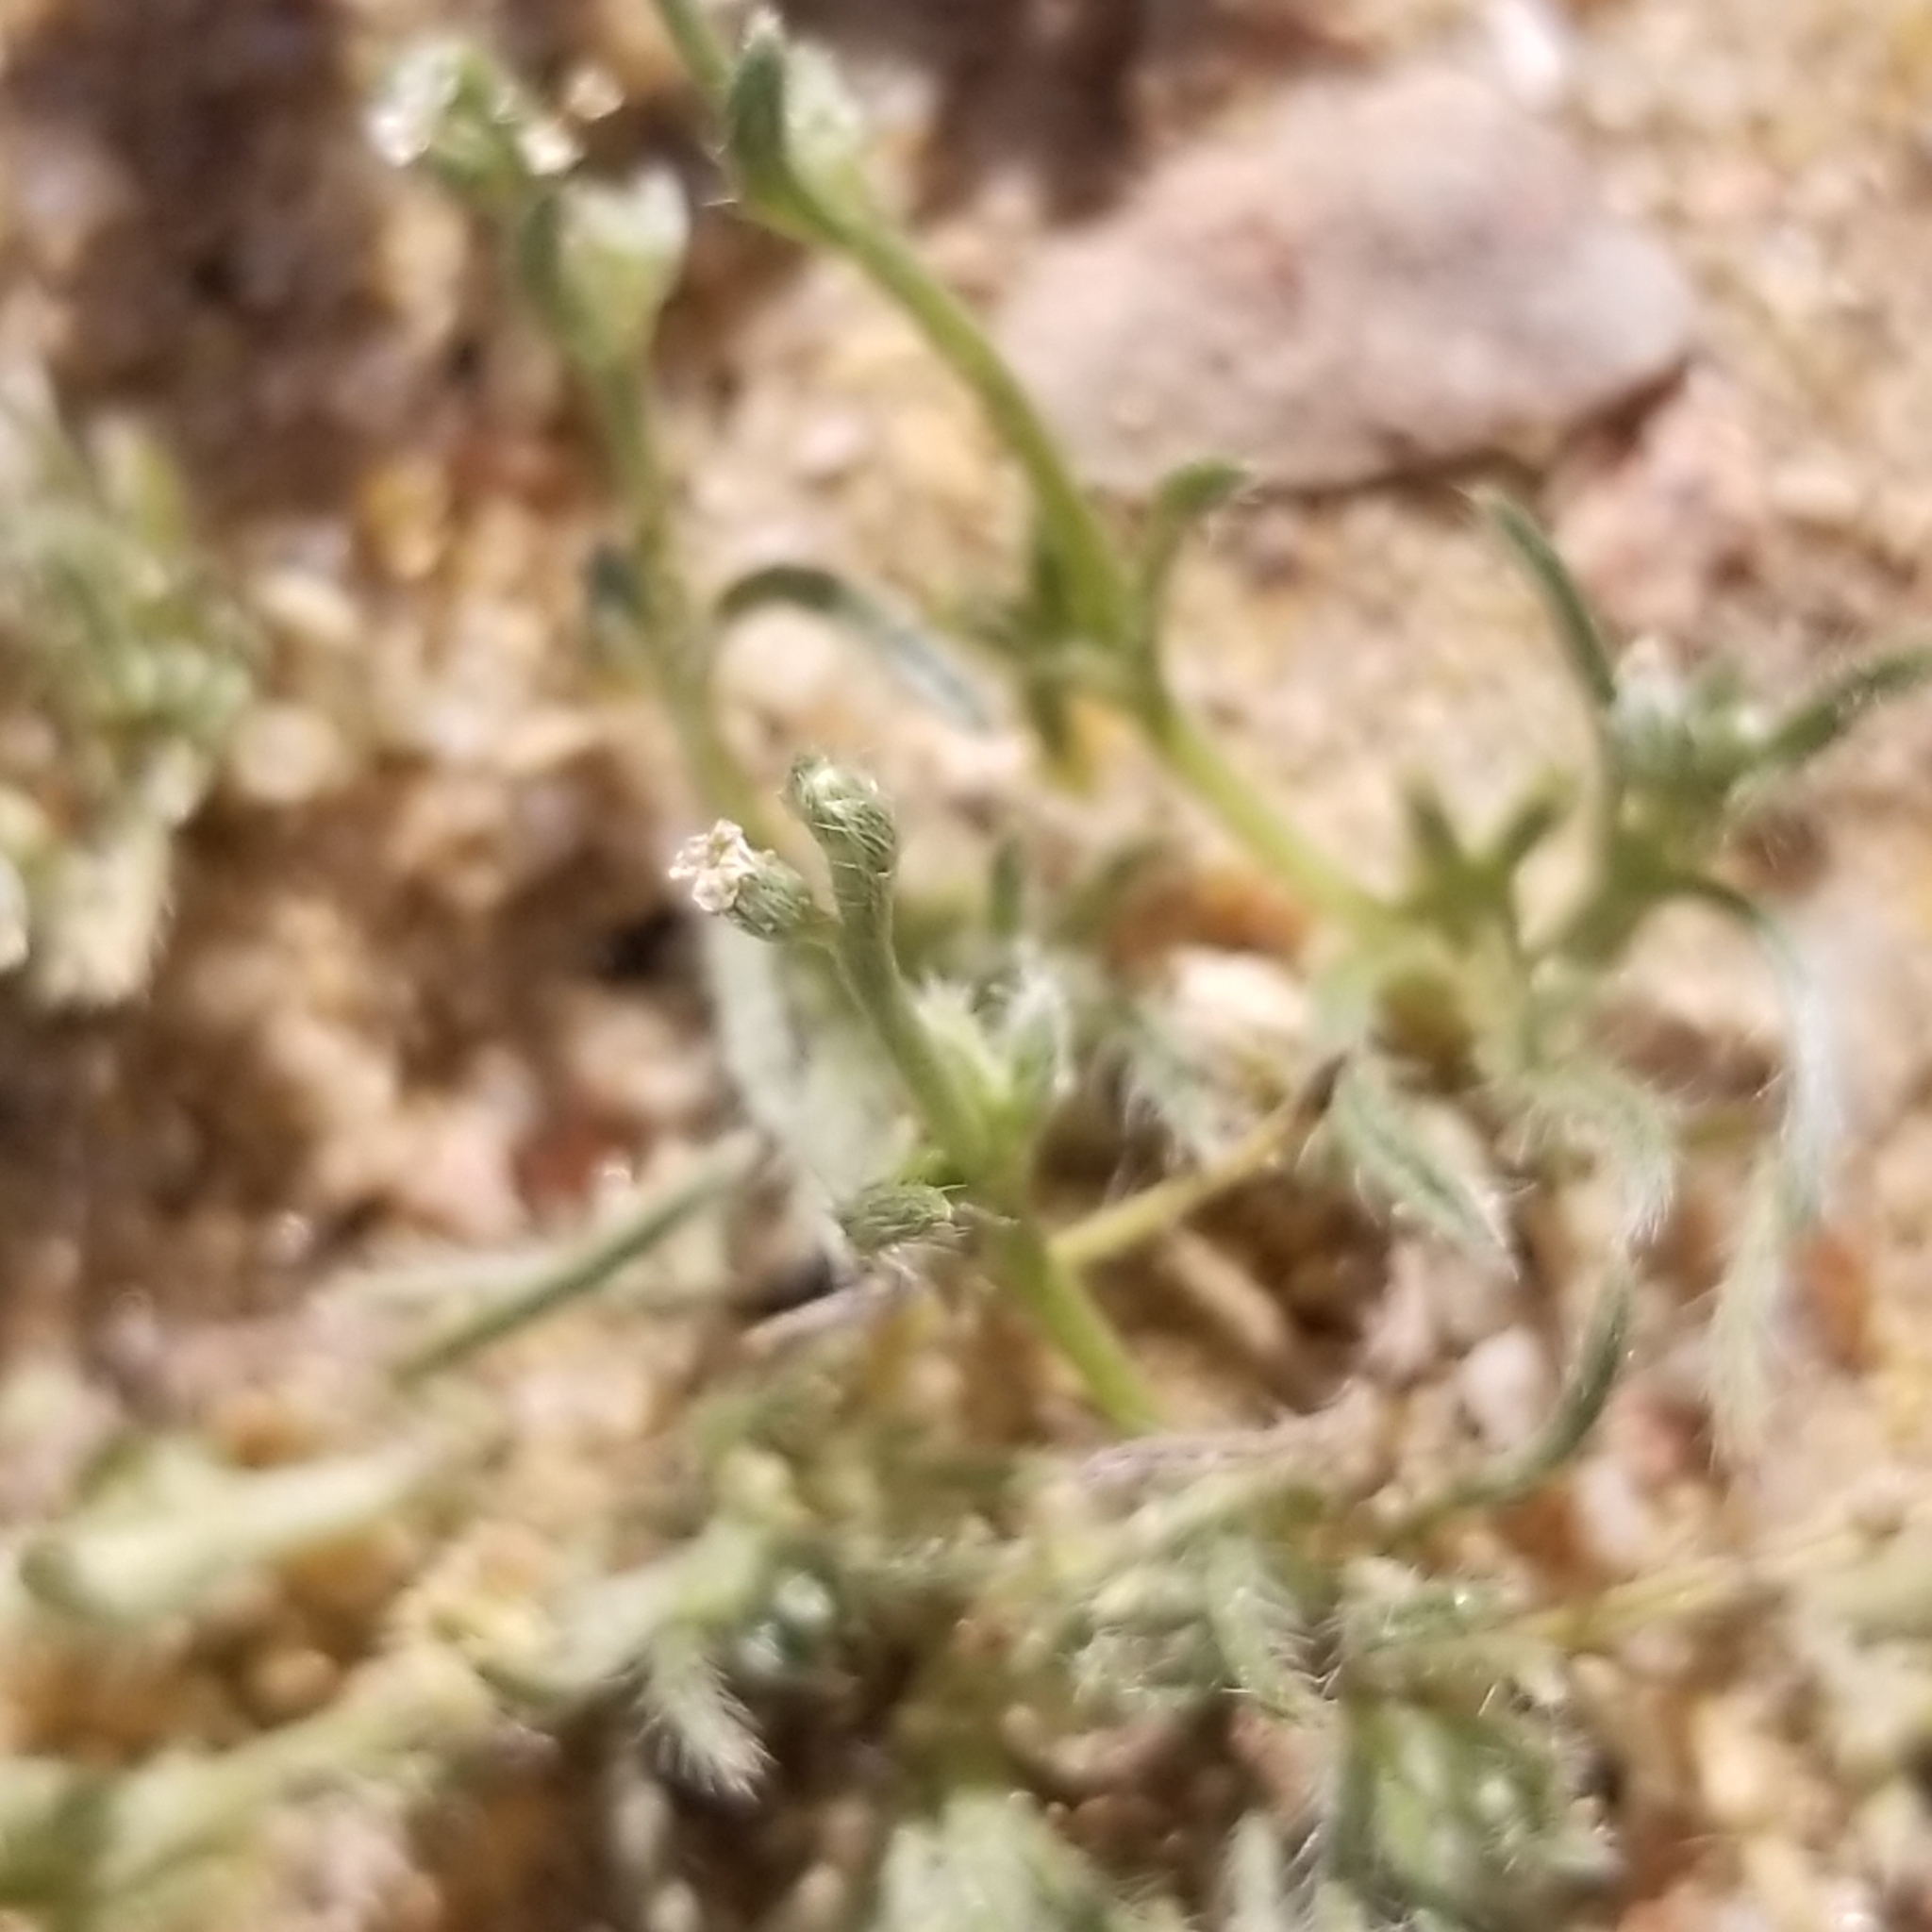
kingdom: Plantae
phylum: Tracheophyta
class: Magnoliopsida
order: Boraginales
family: Boraginaceae
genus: Pectocarya
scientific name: Pectocarya linearis
